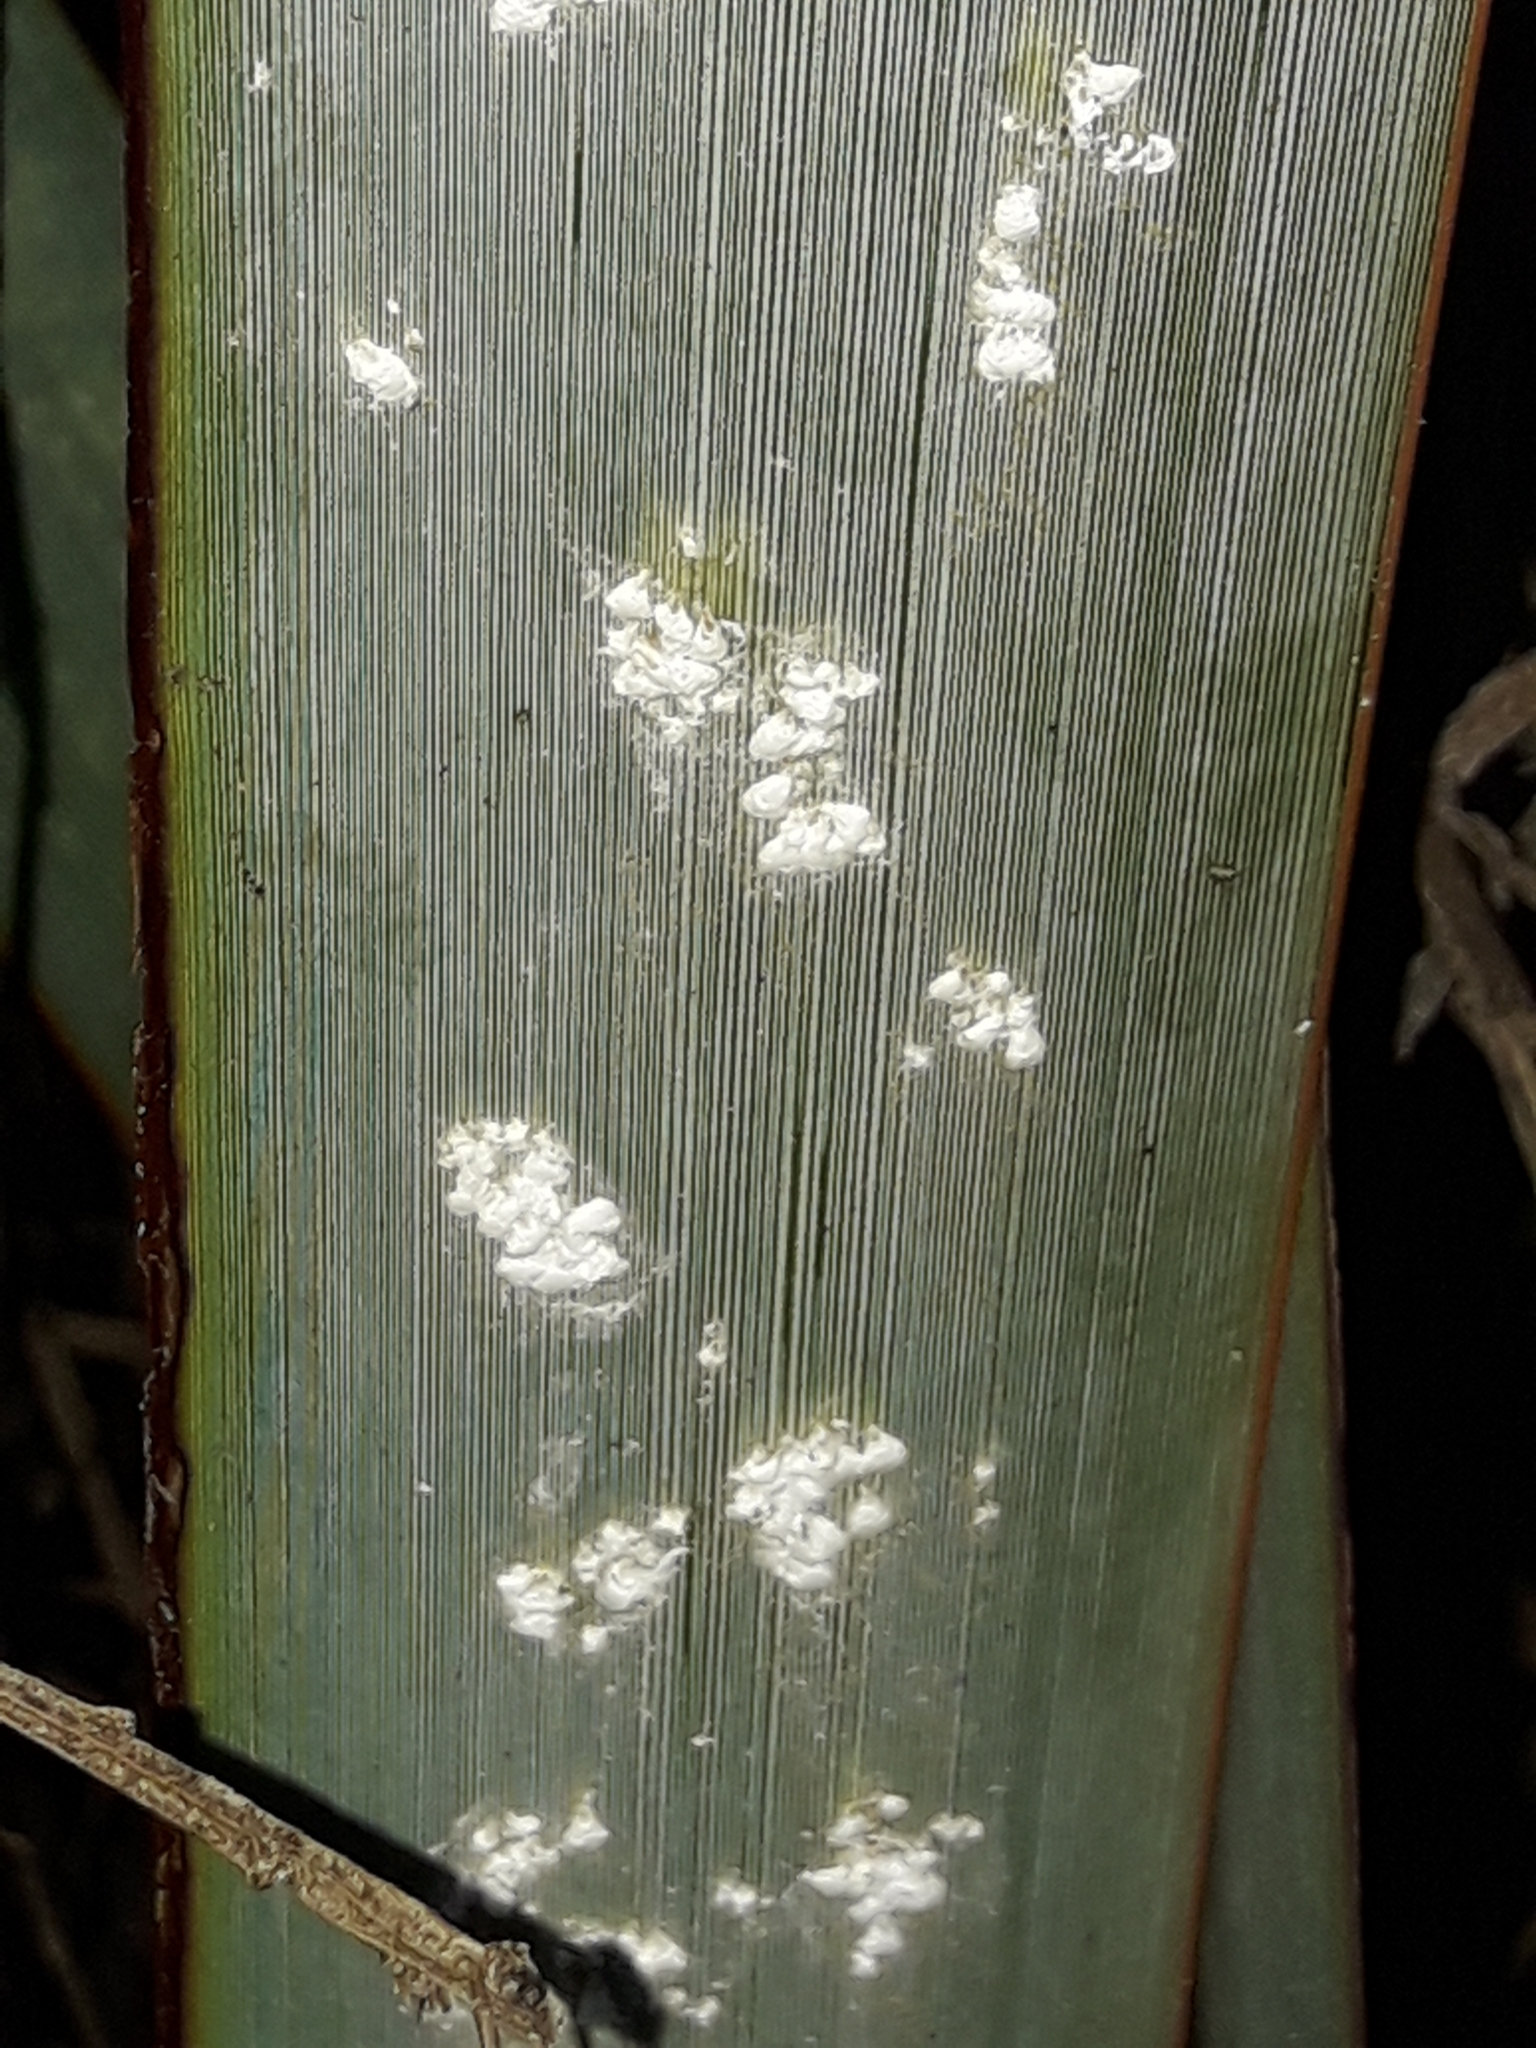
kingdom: Animalia
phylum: Arthropoda
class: Insecta
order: Hemiptera
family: Diaspididae
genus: Poliaspis
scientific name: Poliaspis floccosa
